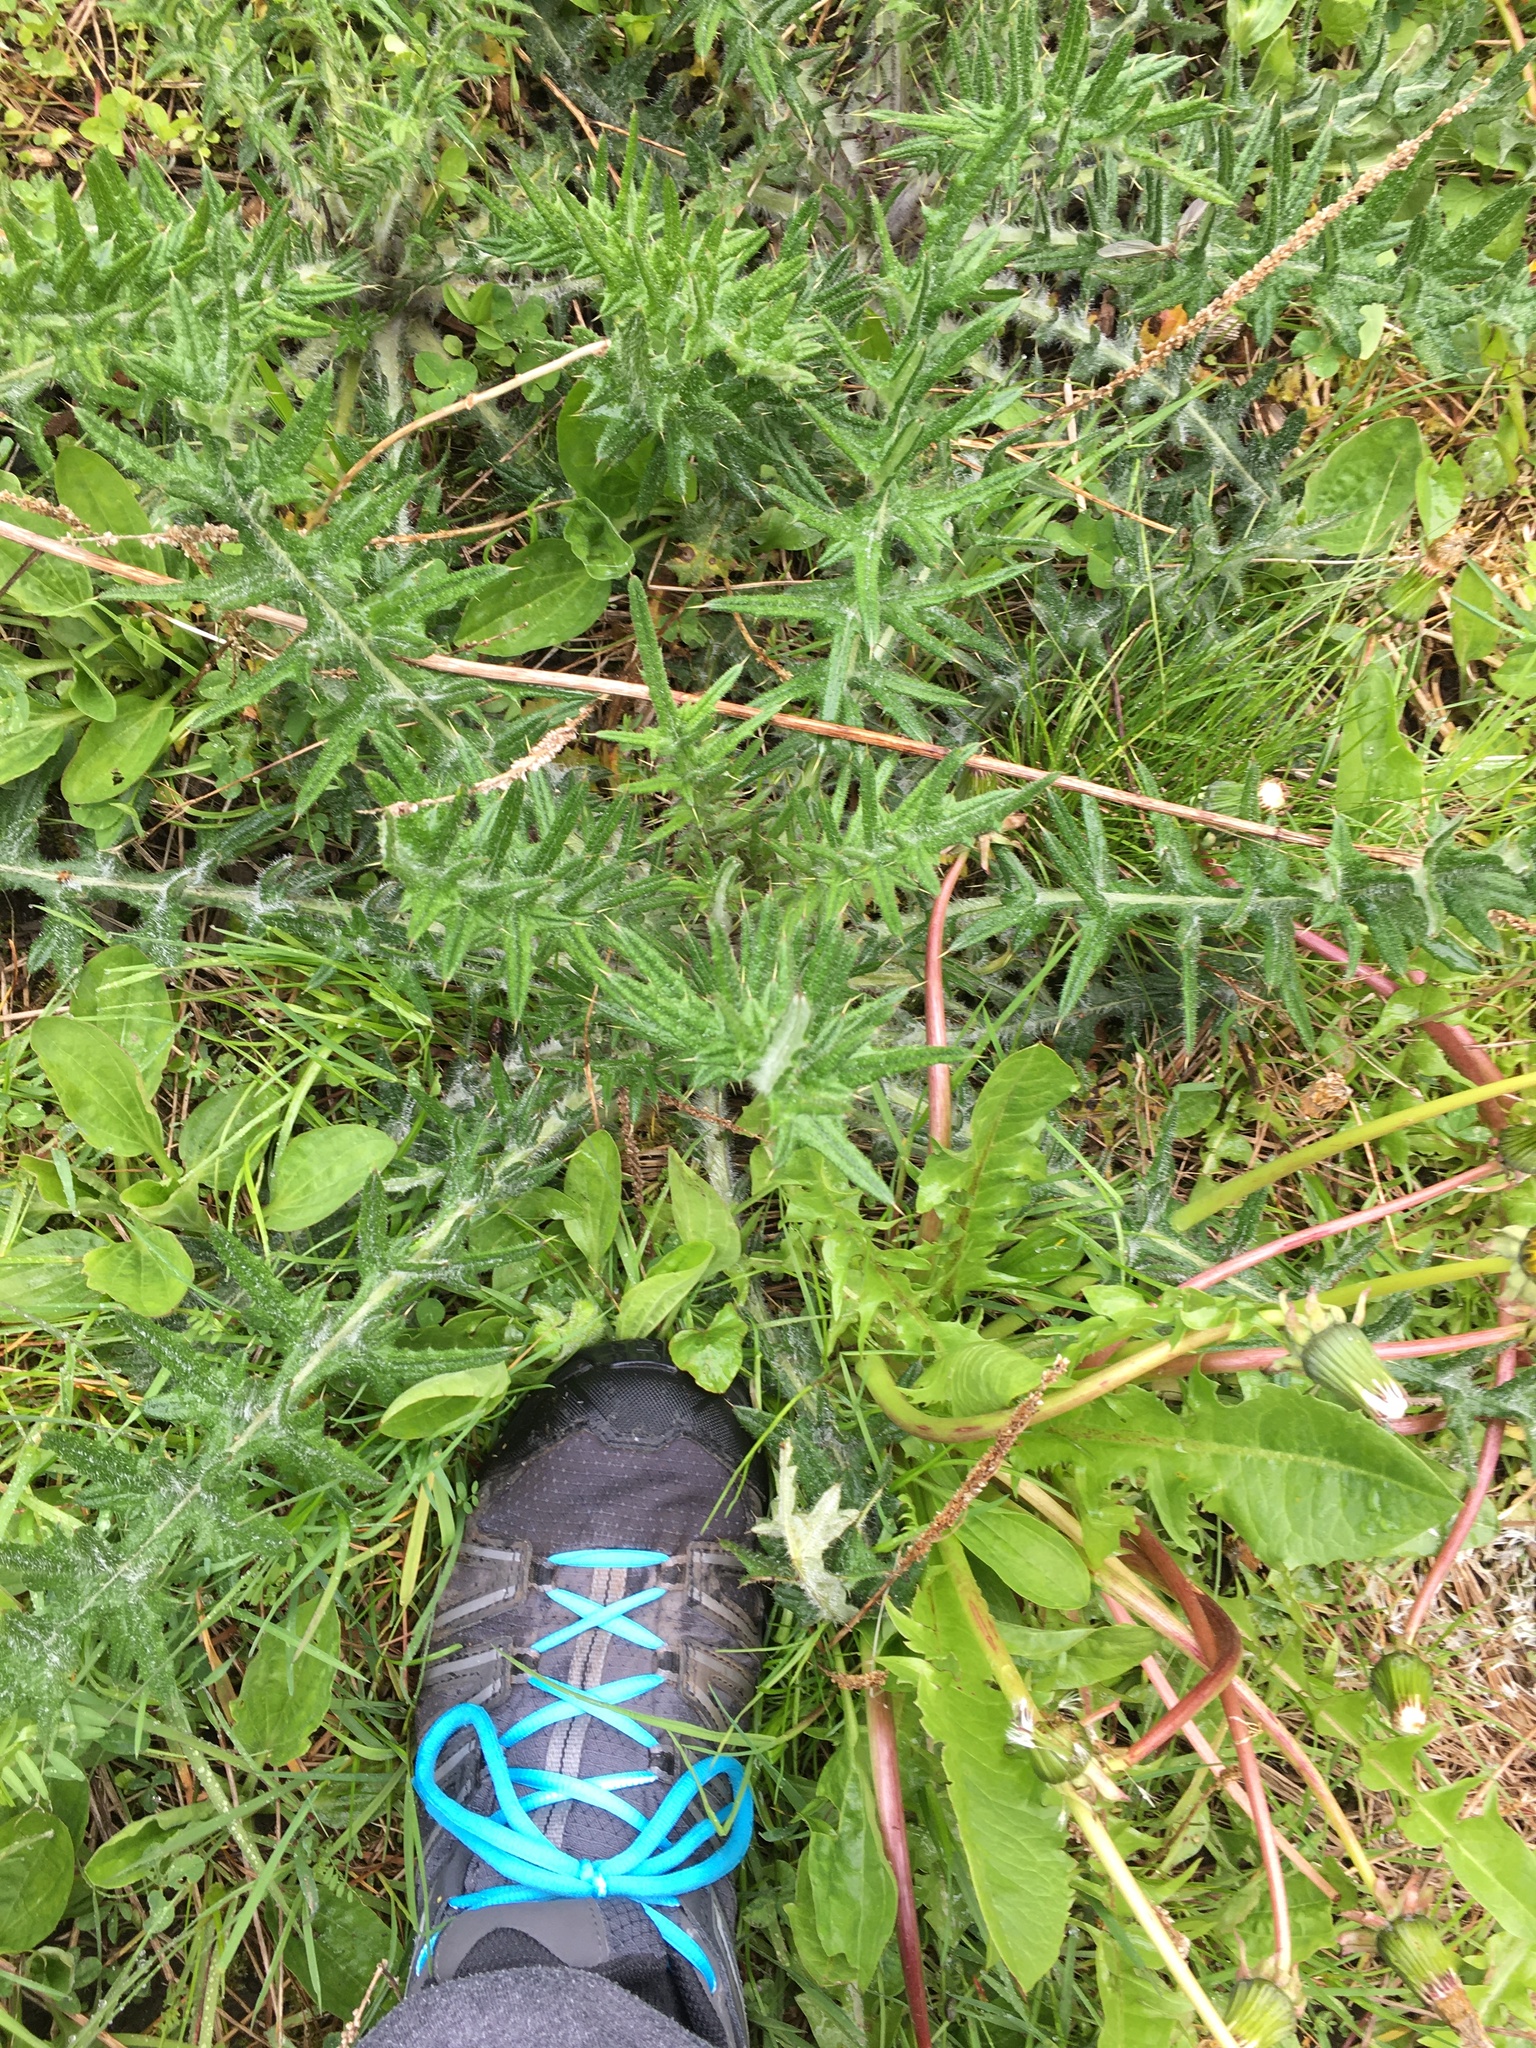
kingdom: Plantae
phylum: Tracheophyta
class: Magnoliopsida
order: Asterales
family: Asteraceae
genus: Cirsium
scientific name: Cirsium vulgare
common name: Bull thistle
